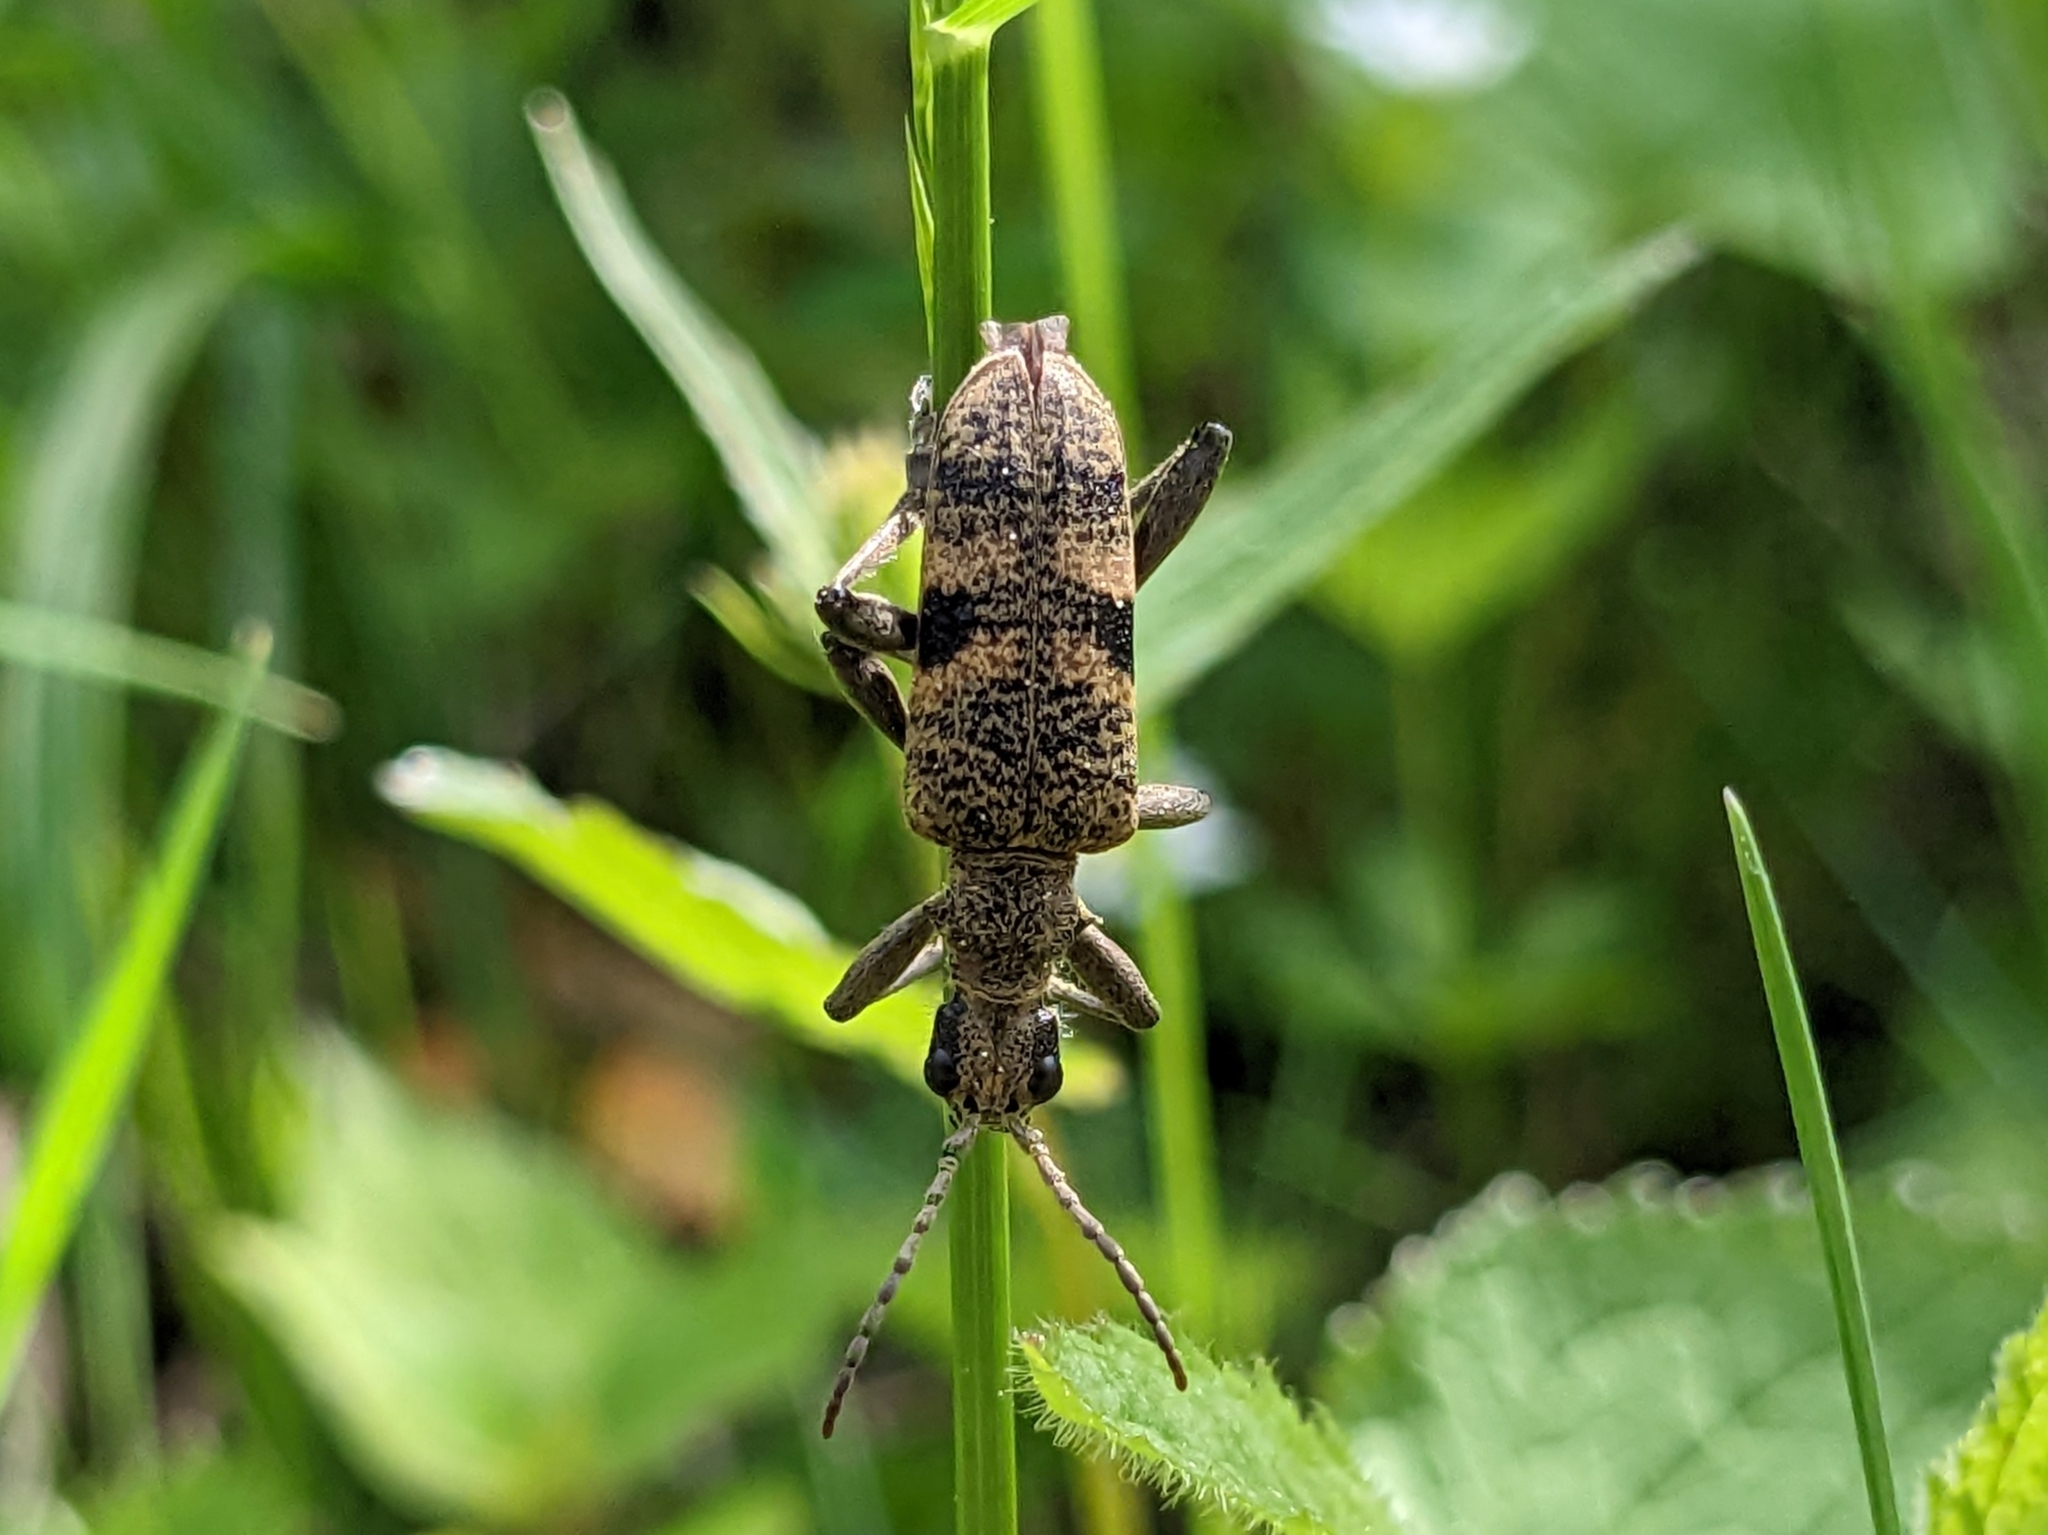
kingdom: Animalia
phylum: Arthropoda
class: Insecta
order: Coleoptera
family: Cerambycidae
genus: Rhagium
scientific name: Rhagium mordax
